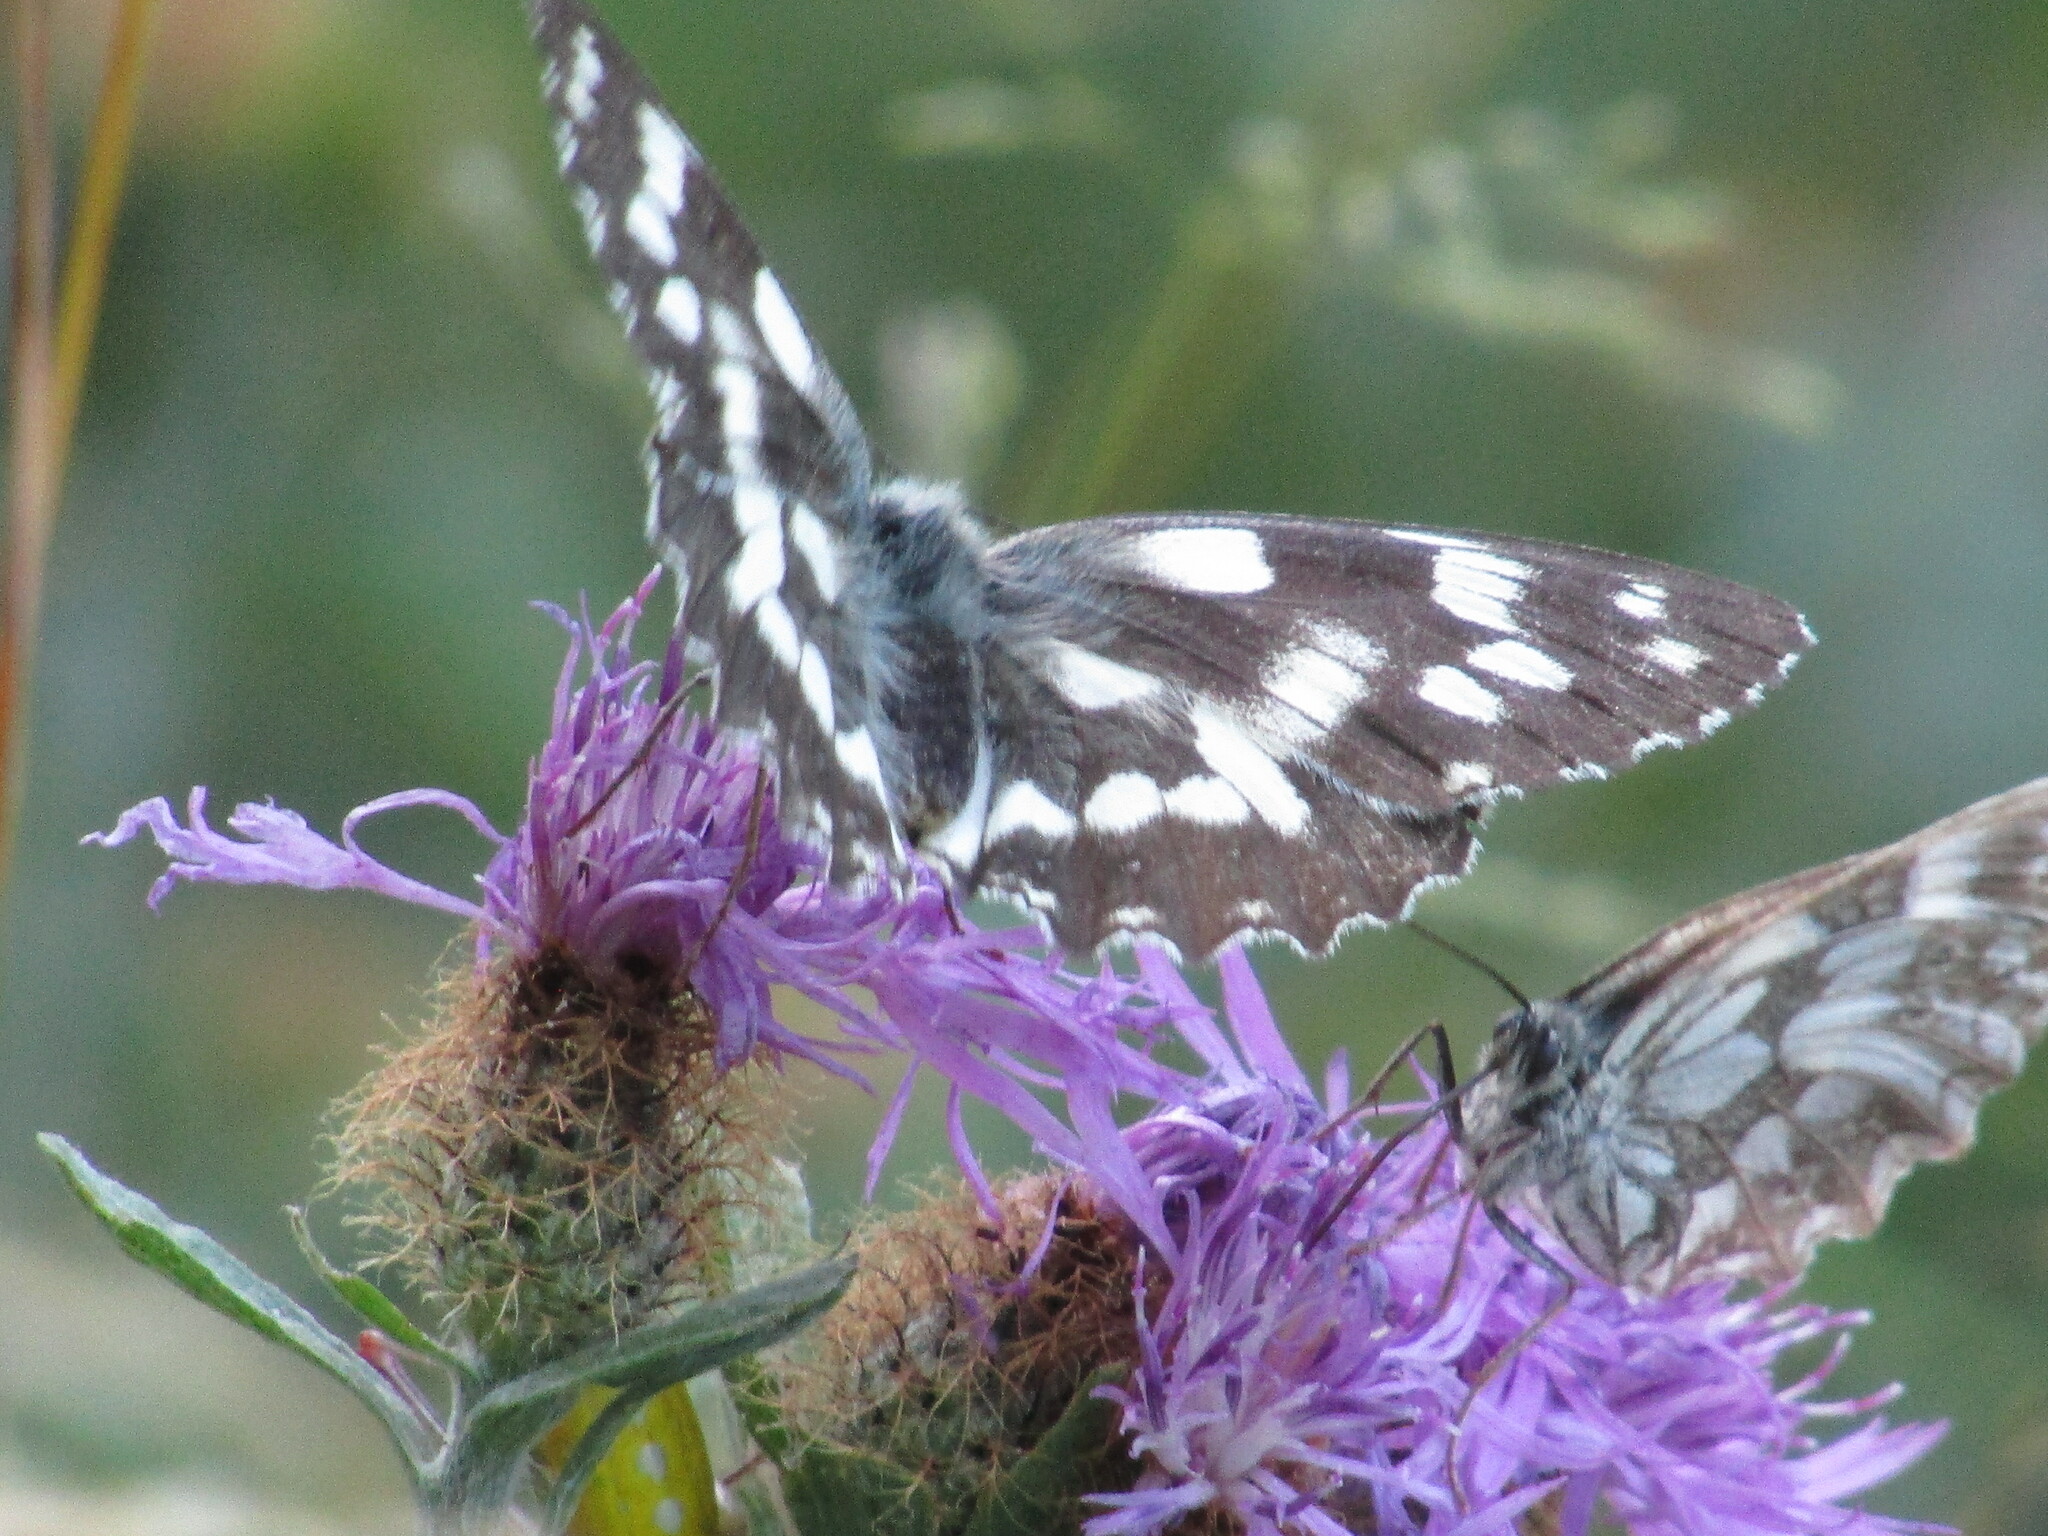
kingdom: Animalia
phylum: Arthropoda
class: Insecta
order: Lepidoptera
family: Nymphalidae
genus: Melanargia
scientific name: Melanargia galathea
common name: Marbled white
